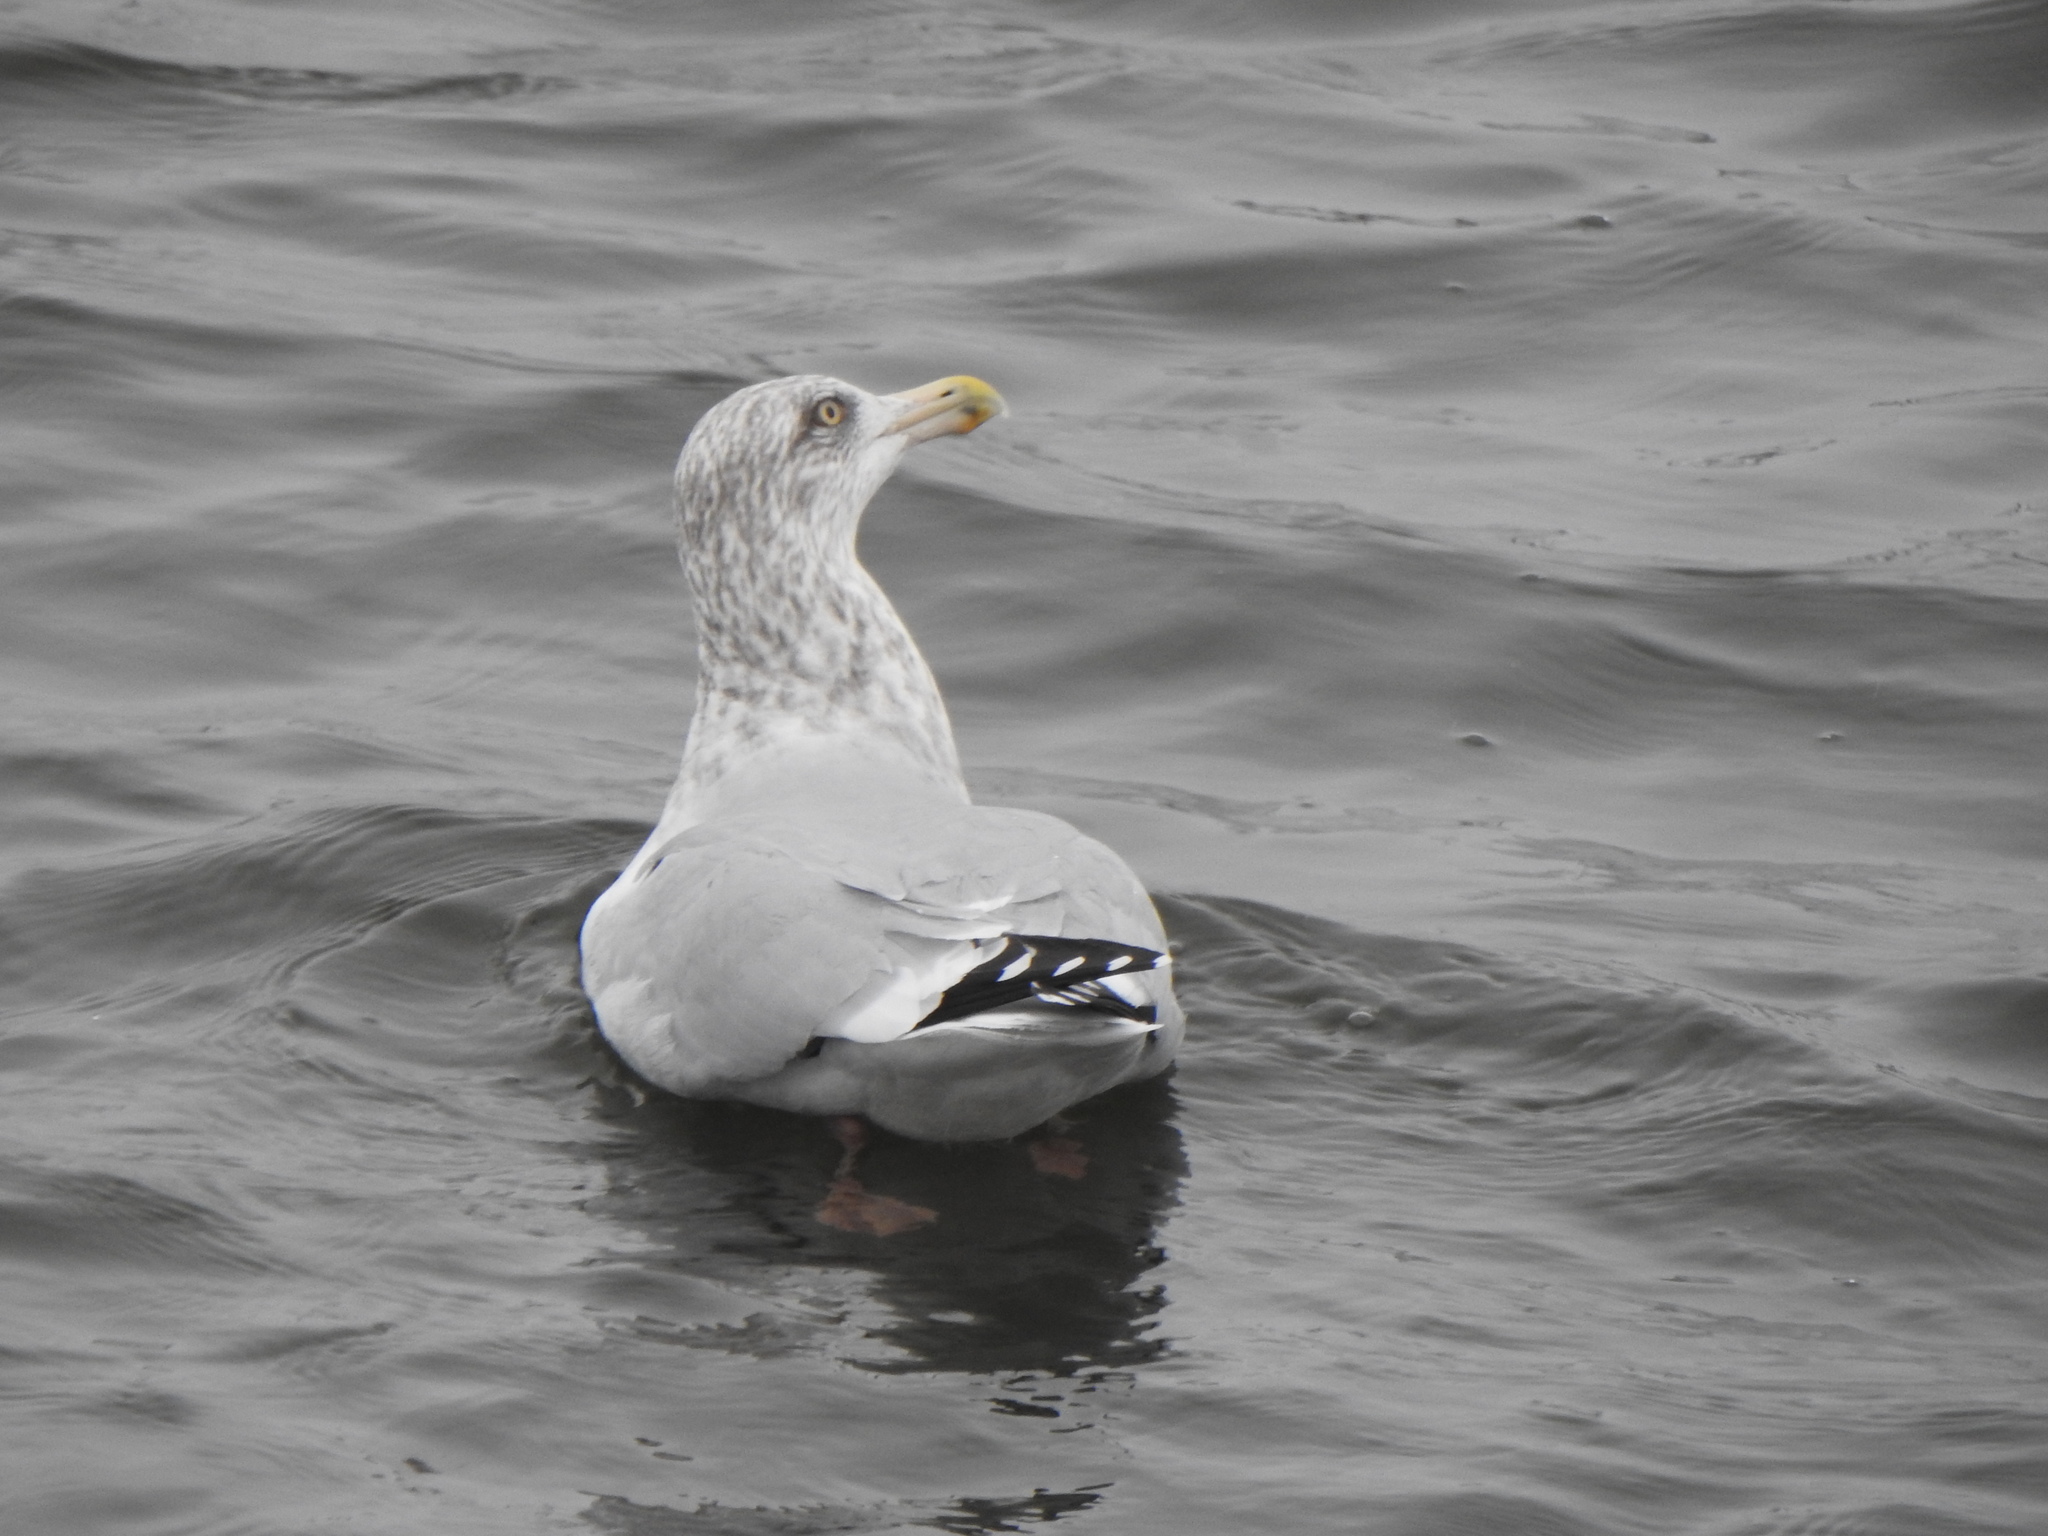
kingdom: Animalia
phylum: Chordata
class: Aves
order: Charadriiformes
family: Laridae
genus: Larus
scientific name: Larus argentatus
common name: Herring gull
